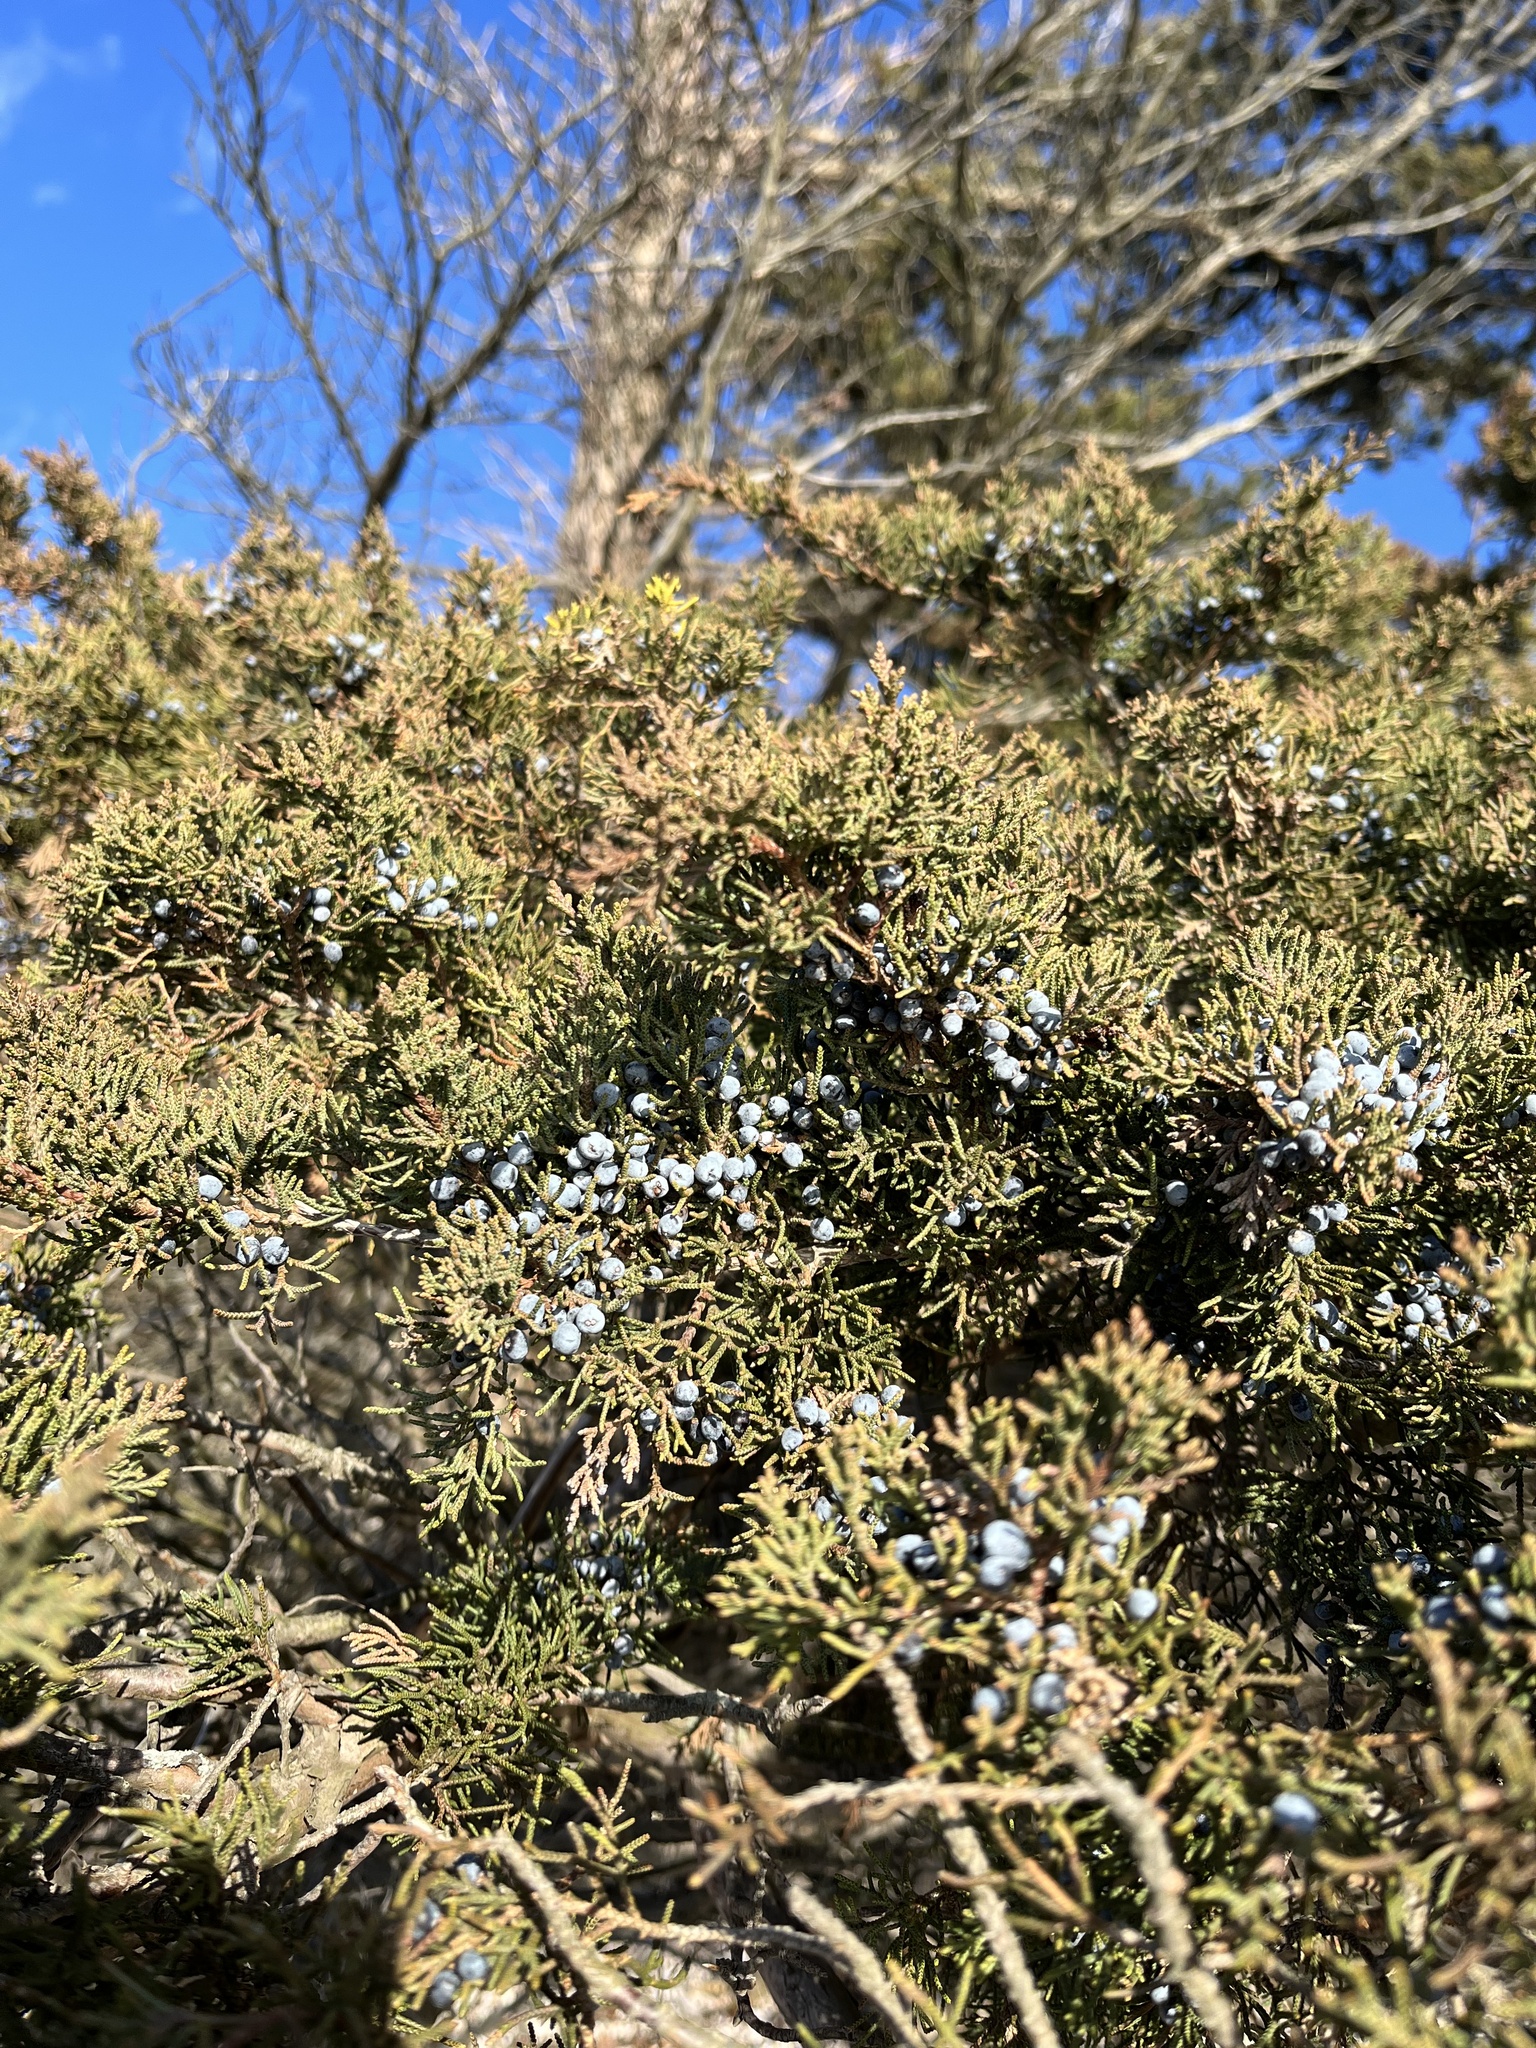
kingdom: Plantae
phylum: Tracheophyta
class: Pinopsida
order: Pinales
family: Cupressaceae
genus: Juniperus
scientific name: Juniperus virginiana
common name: Red juniper
